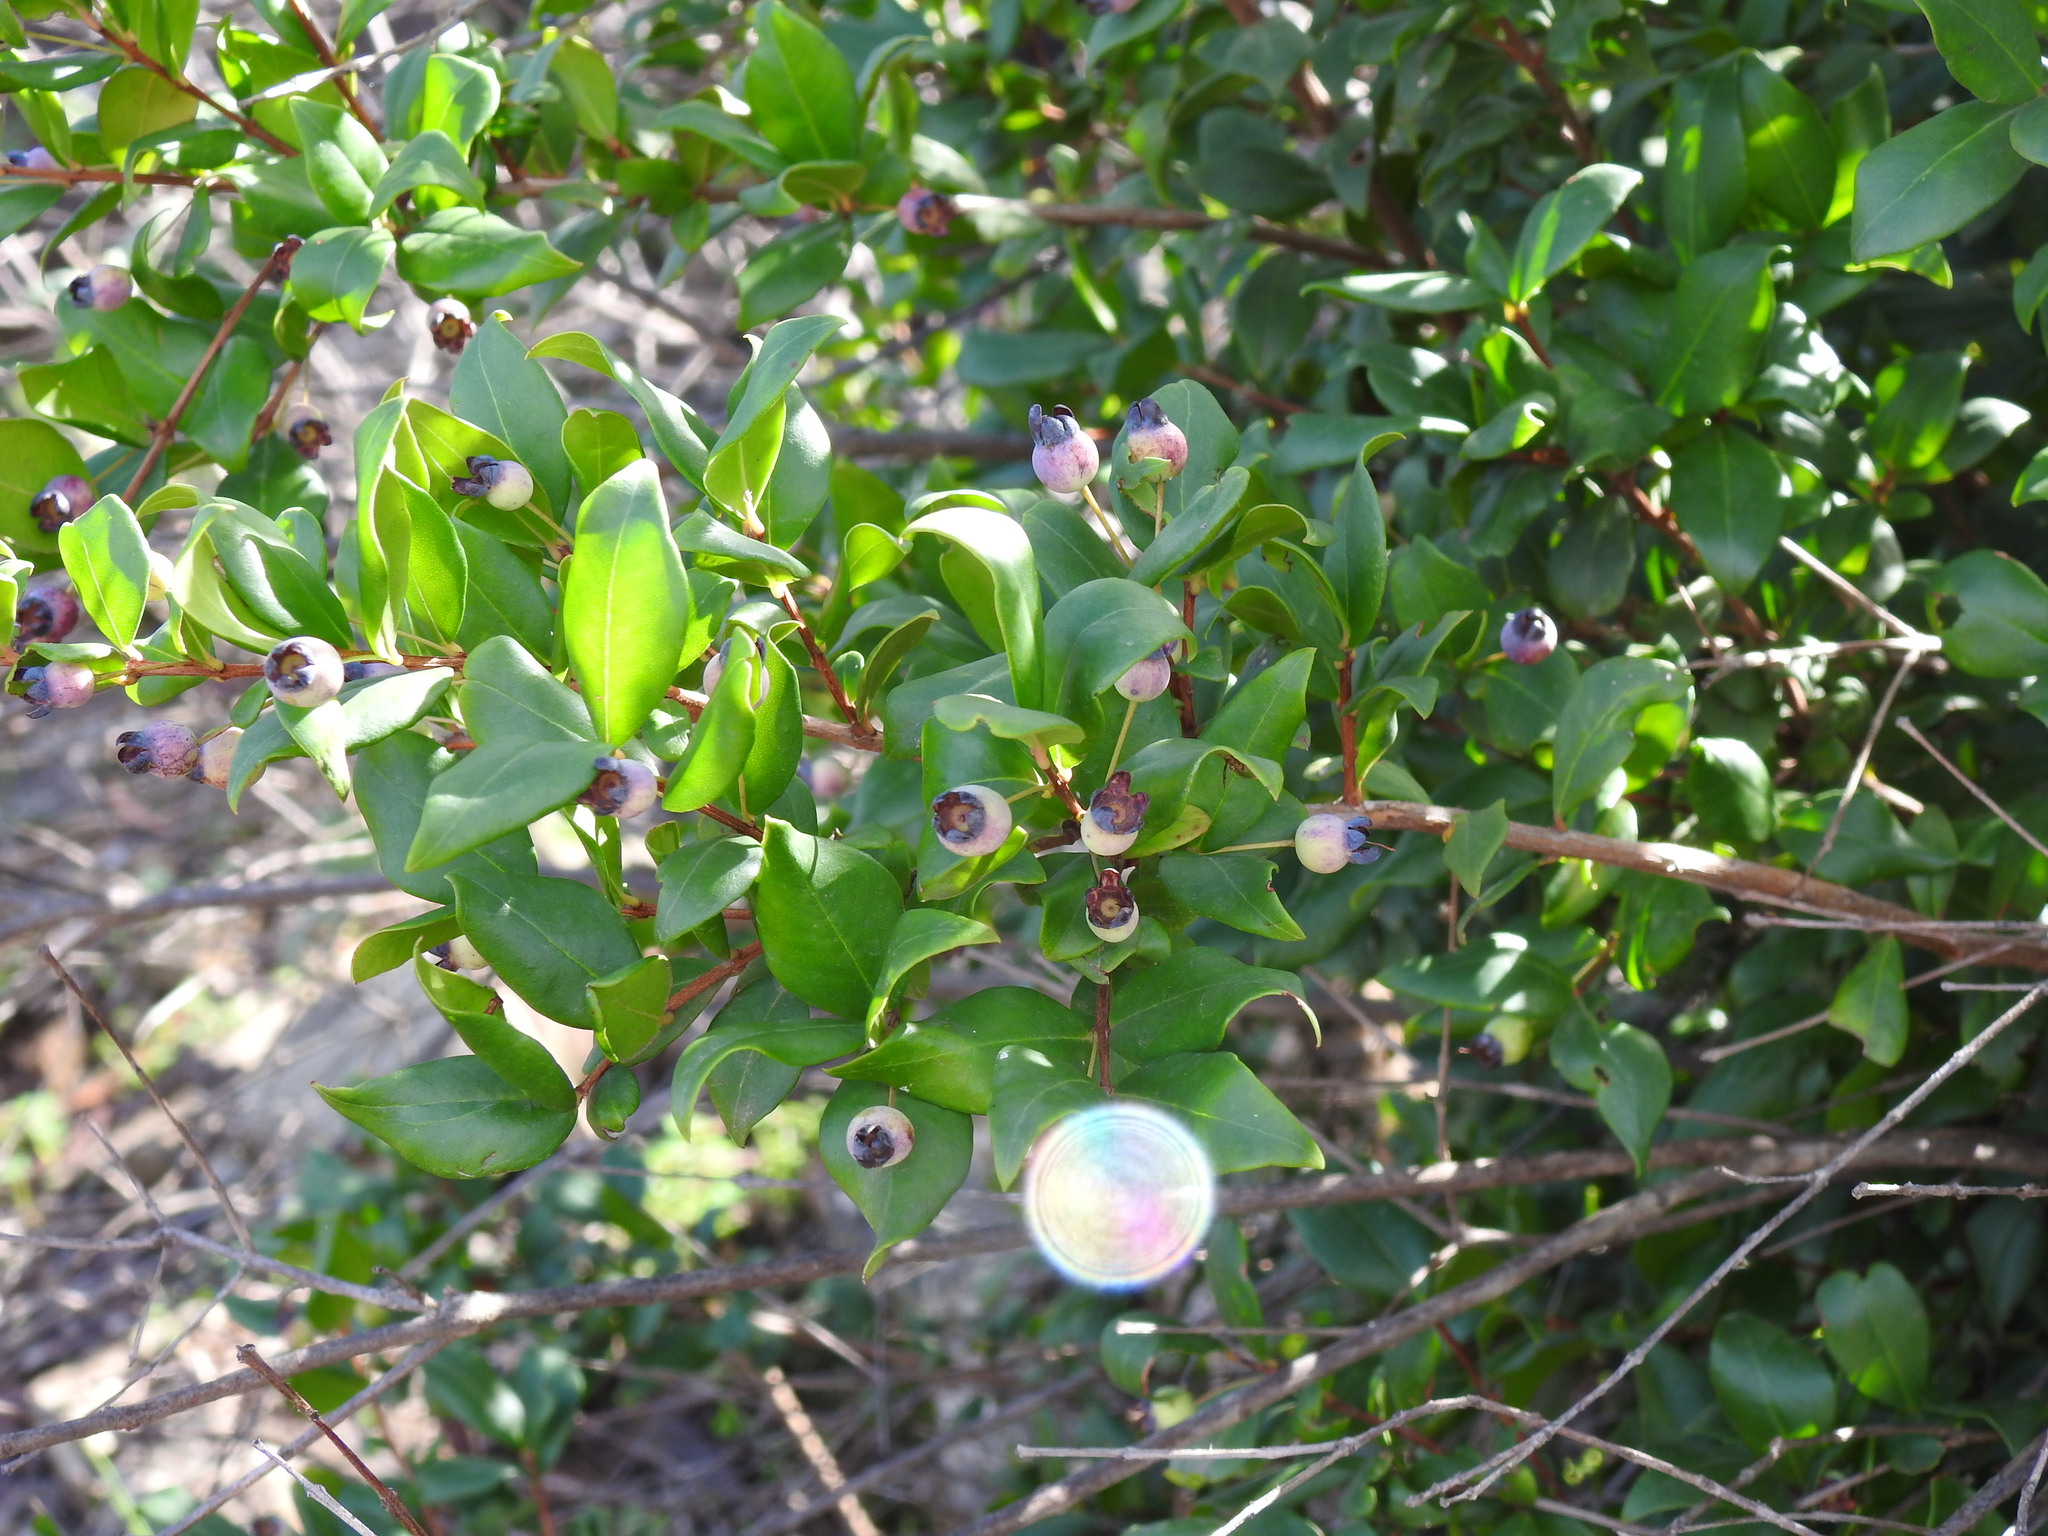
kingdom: Plantae
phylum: Tracheophyta
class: Magnoliopsida
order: Myrtales
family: Myrtaceae
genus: Myrtus
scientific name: Myrtus communis
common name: Myrtle
